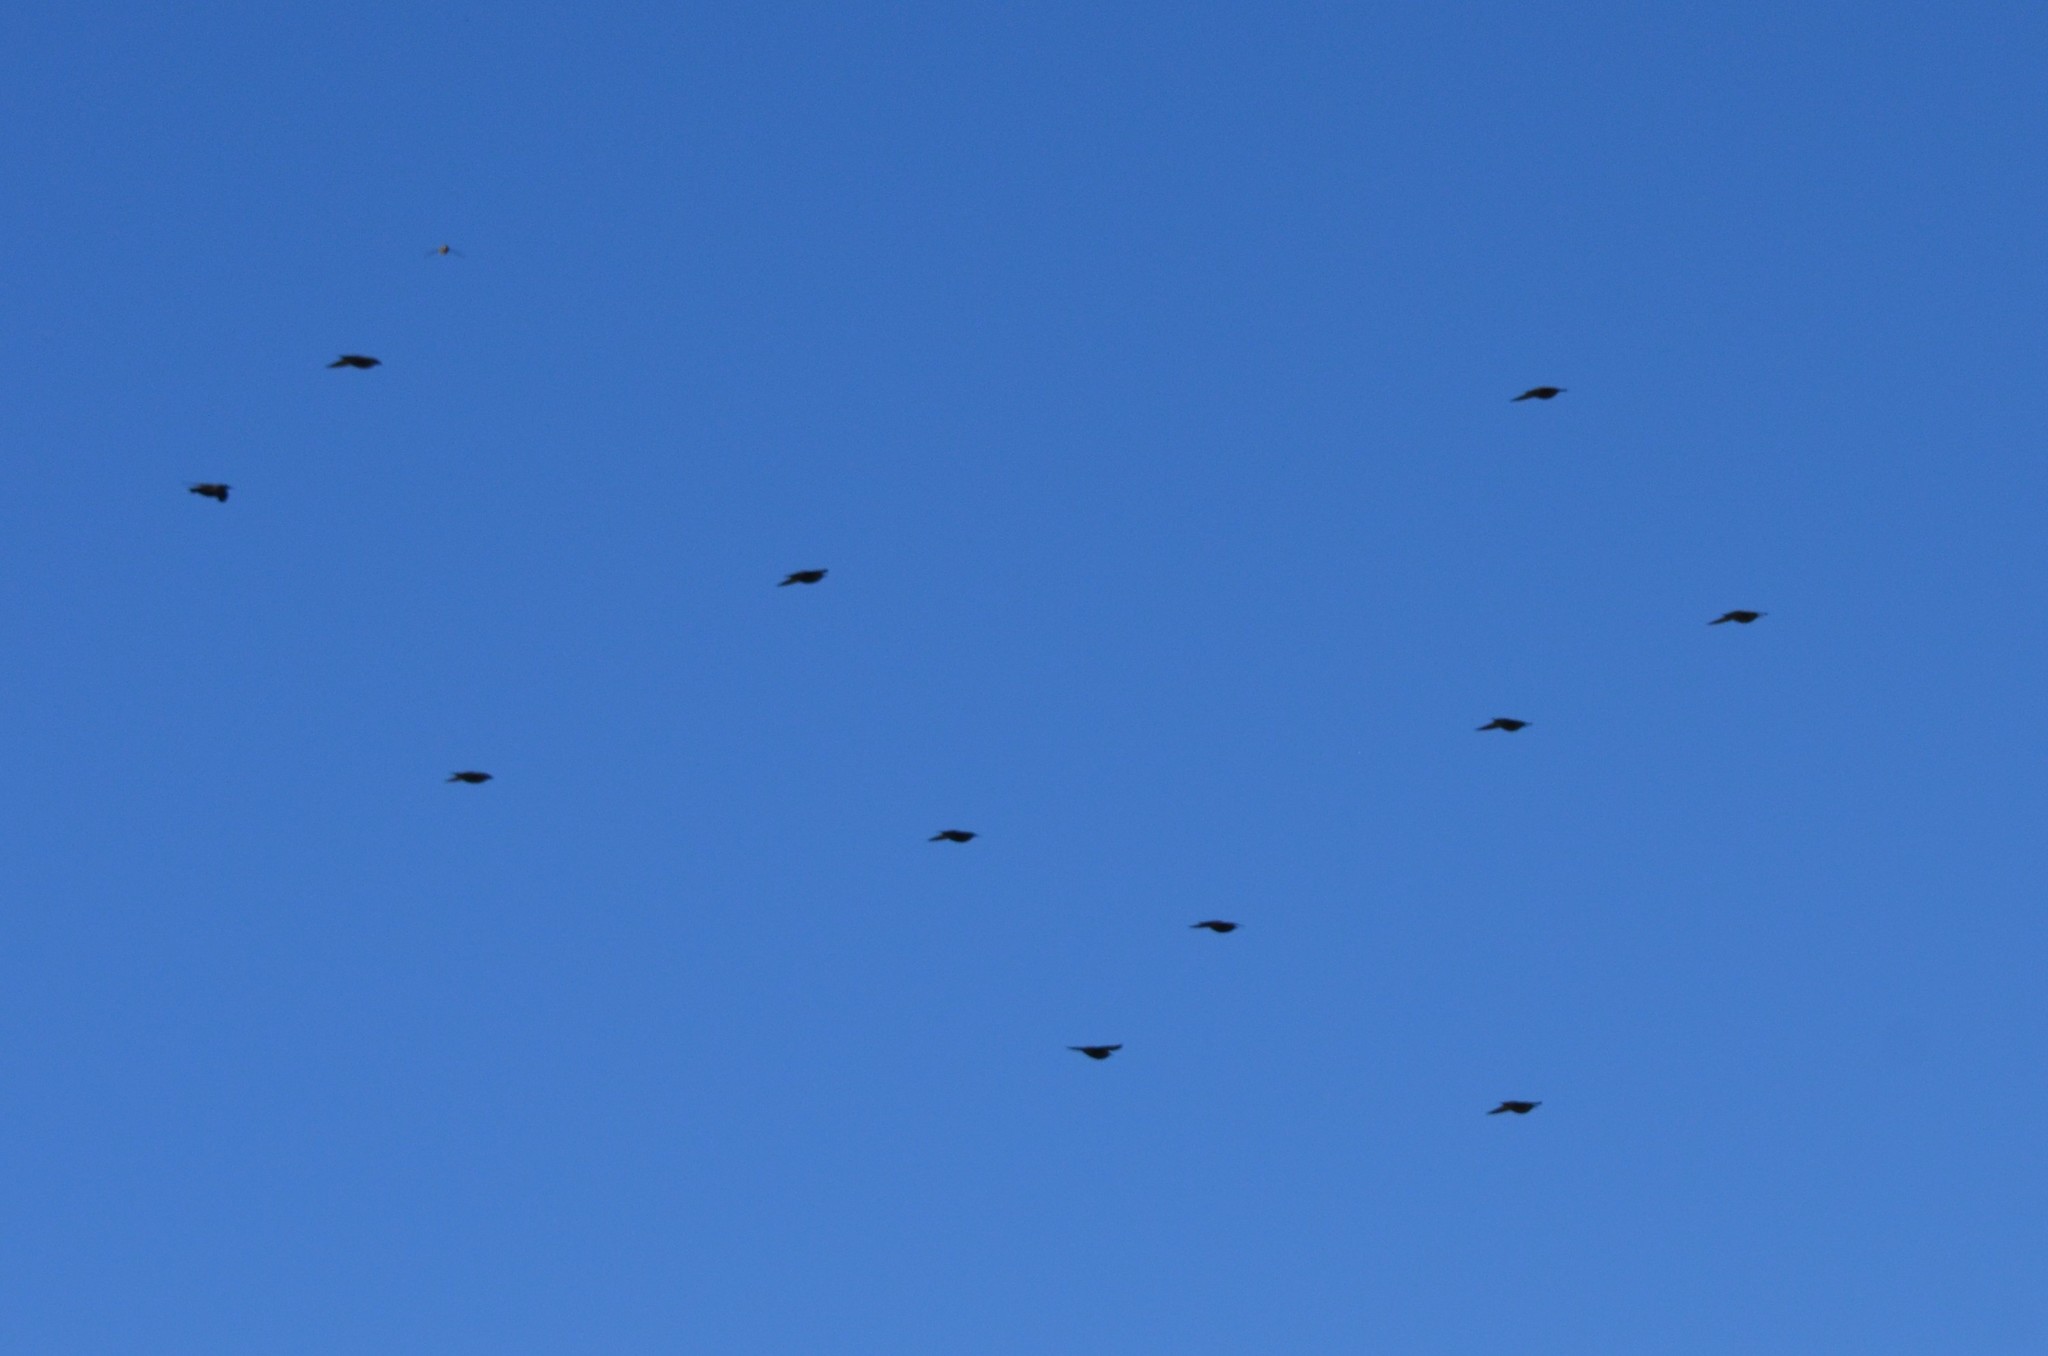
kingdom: Animalia
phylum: Chordata
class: Aves
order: Passeriformes
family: Sturnidae
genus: Sturnus
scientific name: Sturnus vulgaris
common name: Common starling
